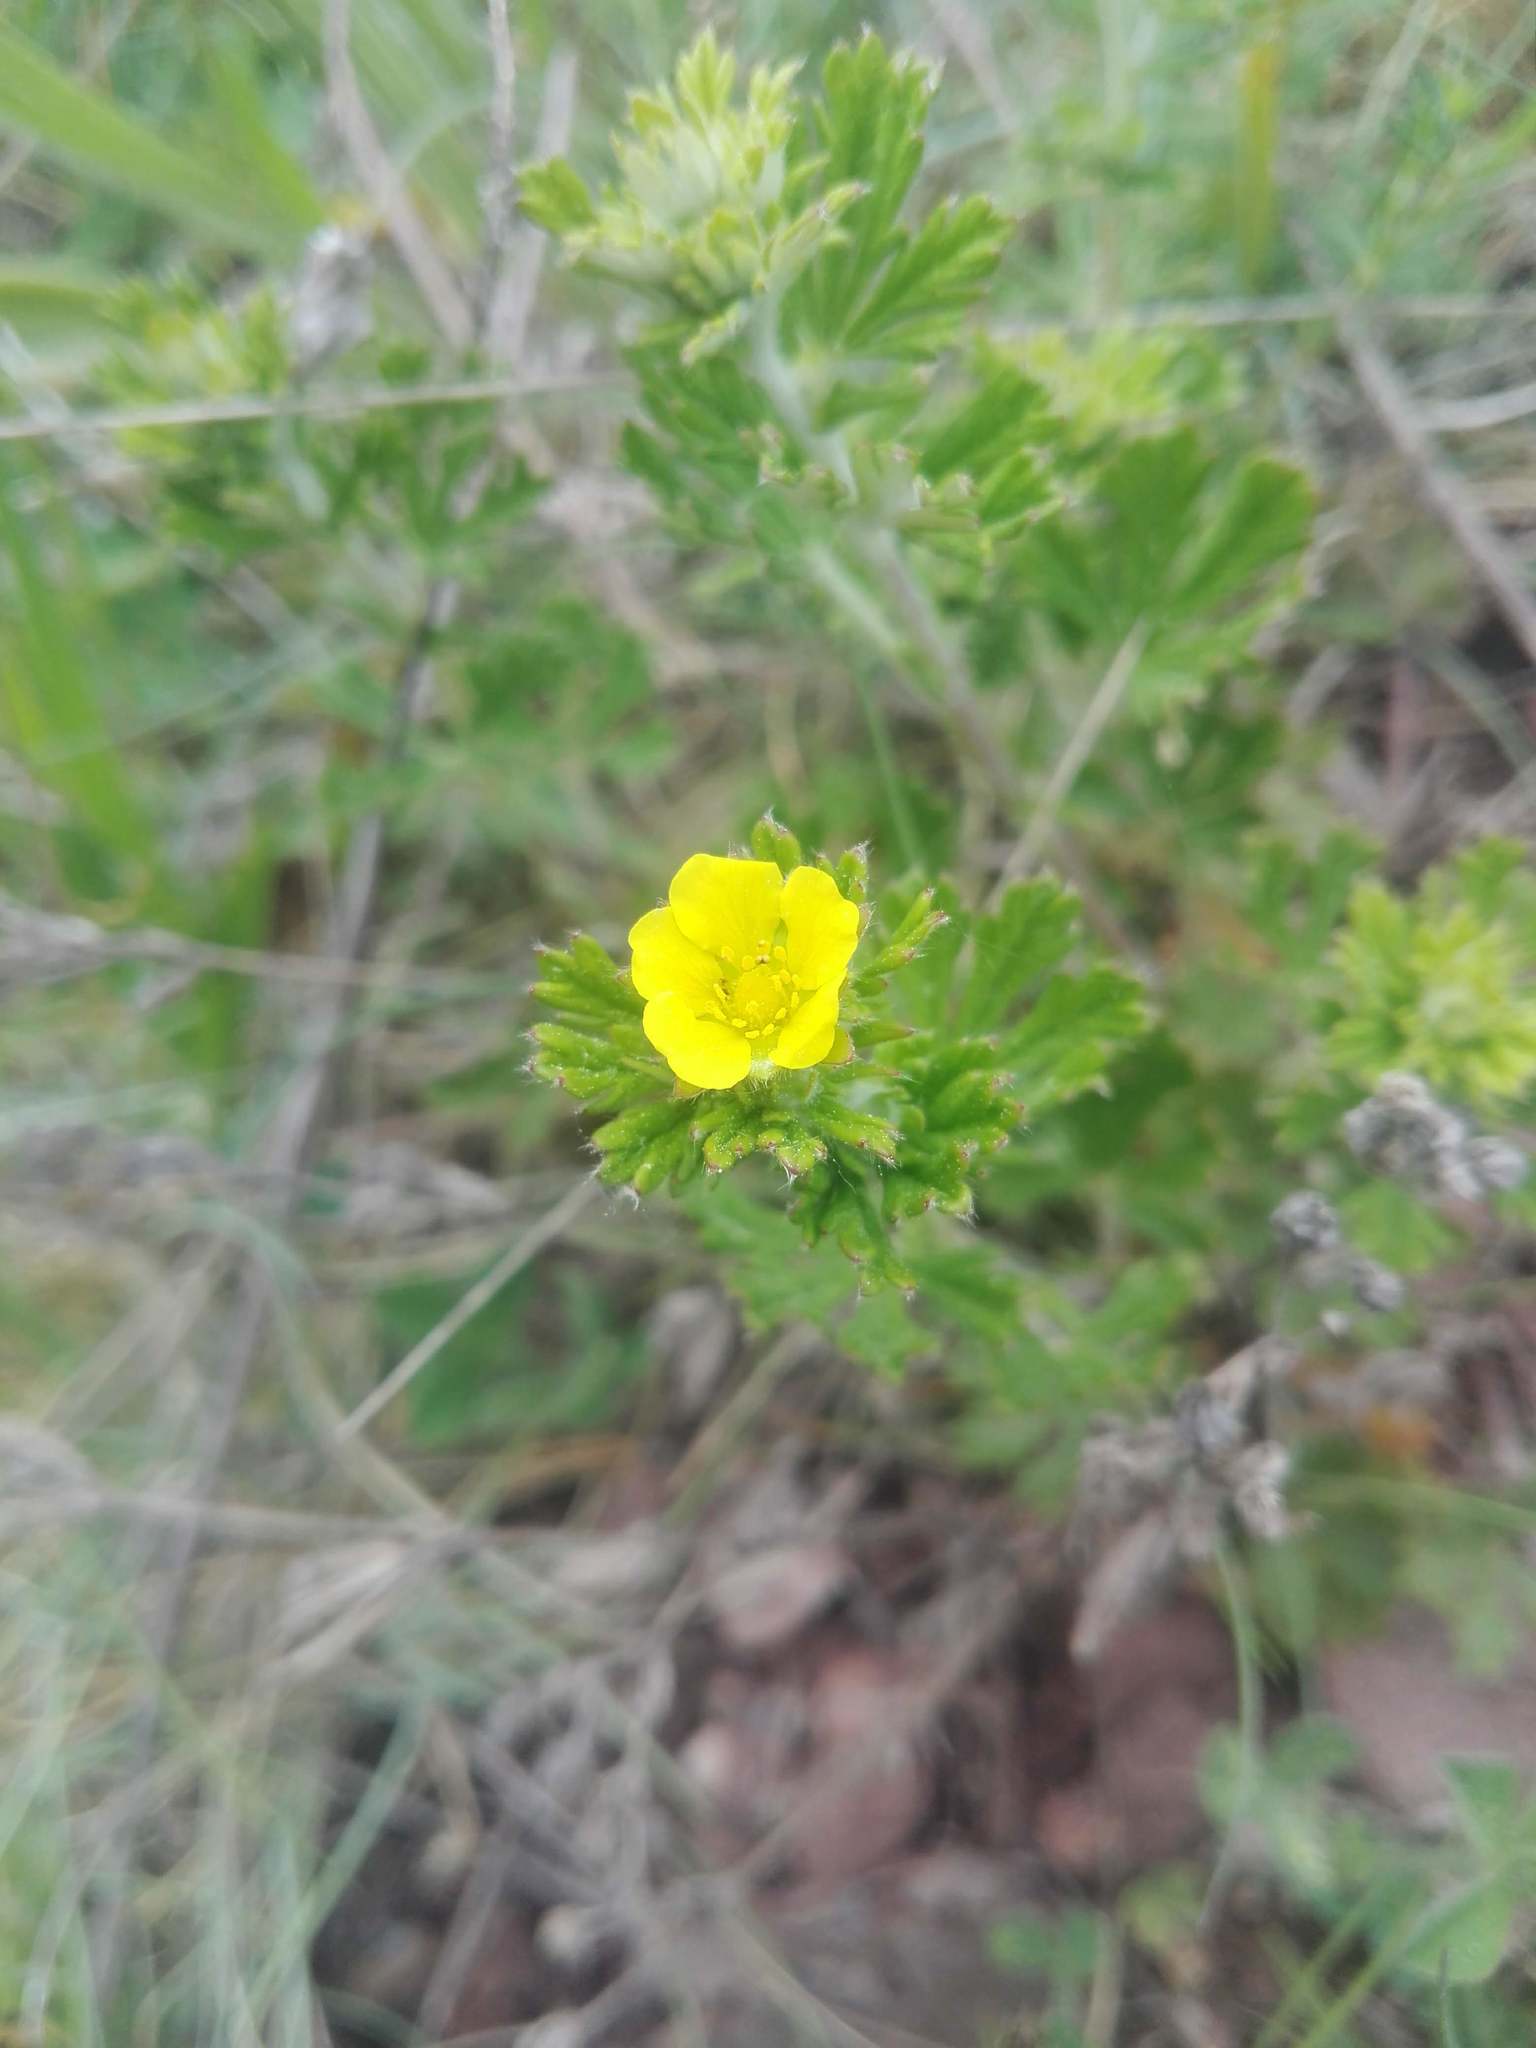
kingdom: Plantae
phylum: Tracheophyta
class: Magnoliopsida
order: Rosales
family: Rosaceae
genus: Potentilla
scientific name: Potentilla argentea
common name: Hoary cinquefoil
